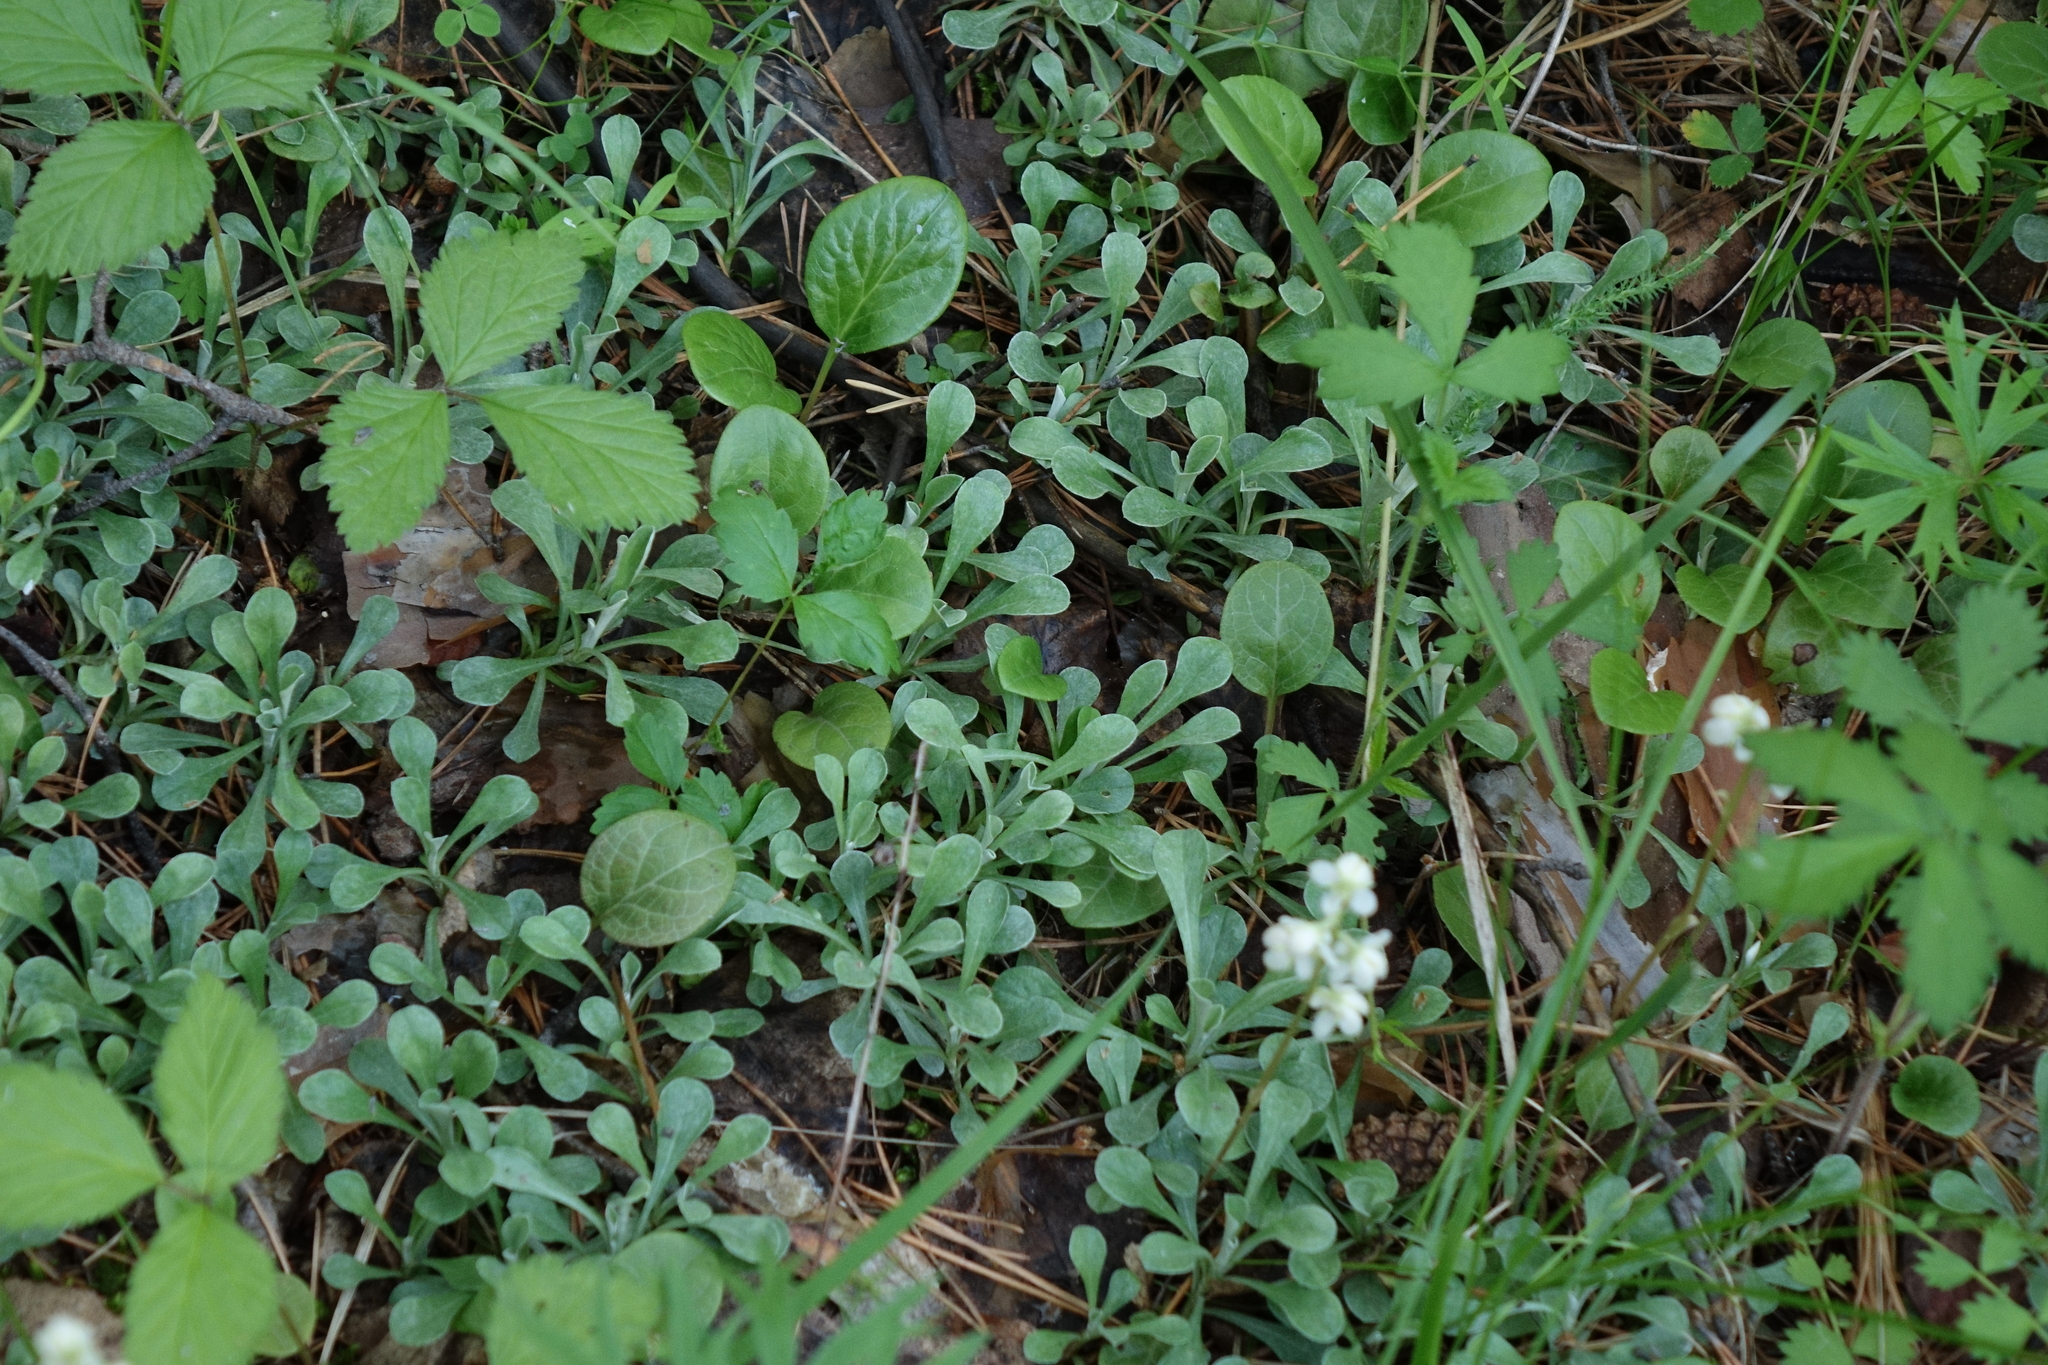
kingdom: Plantae
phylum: Tracheophyta
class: Magnoliopsida
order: Asterales
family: Asteraceae
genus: Antennaria
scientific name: Antennaria dioica
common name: Mountain everlasting
